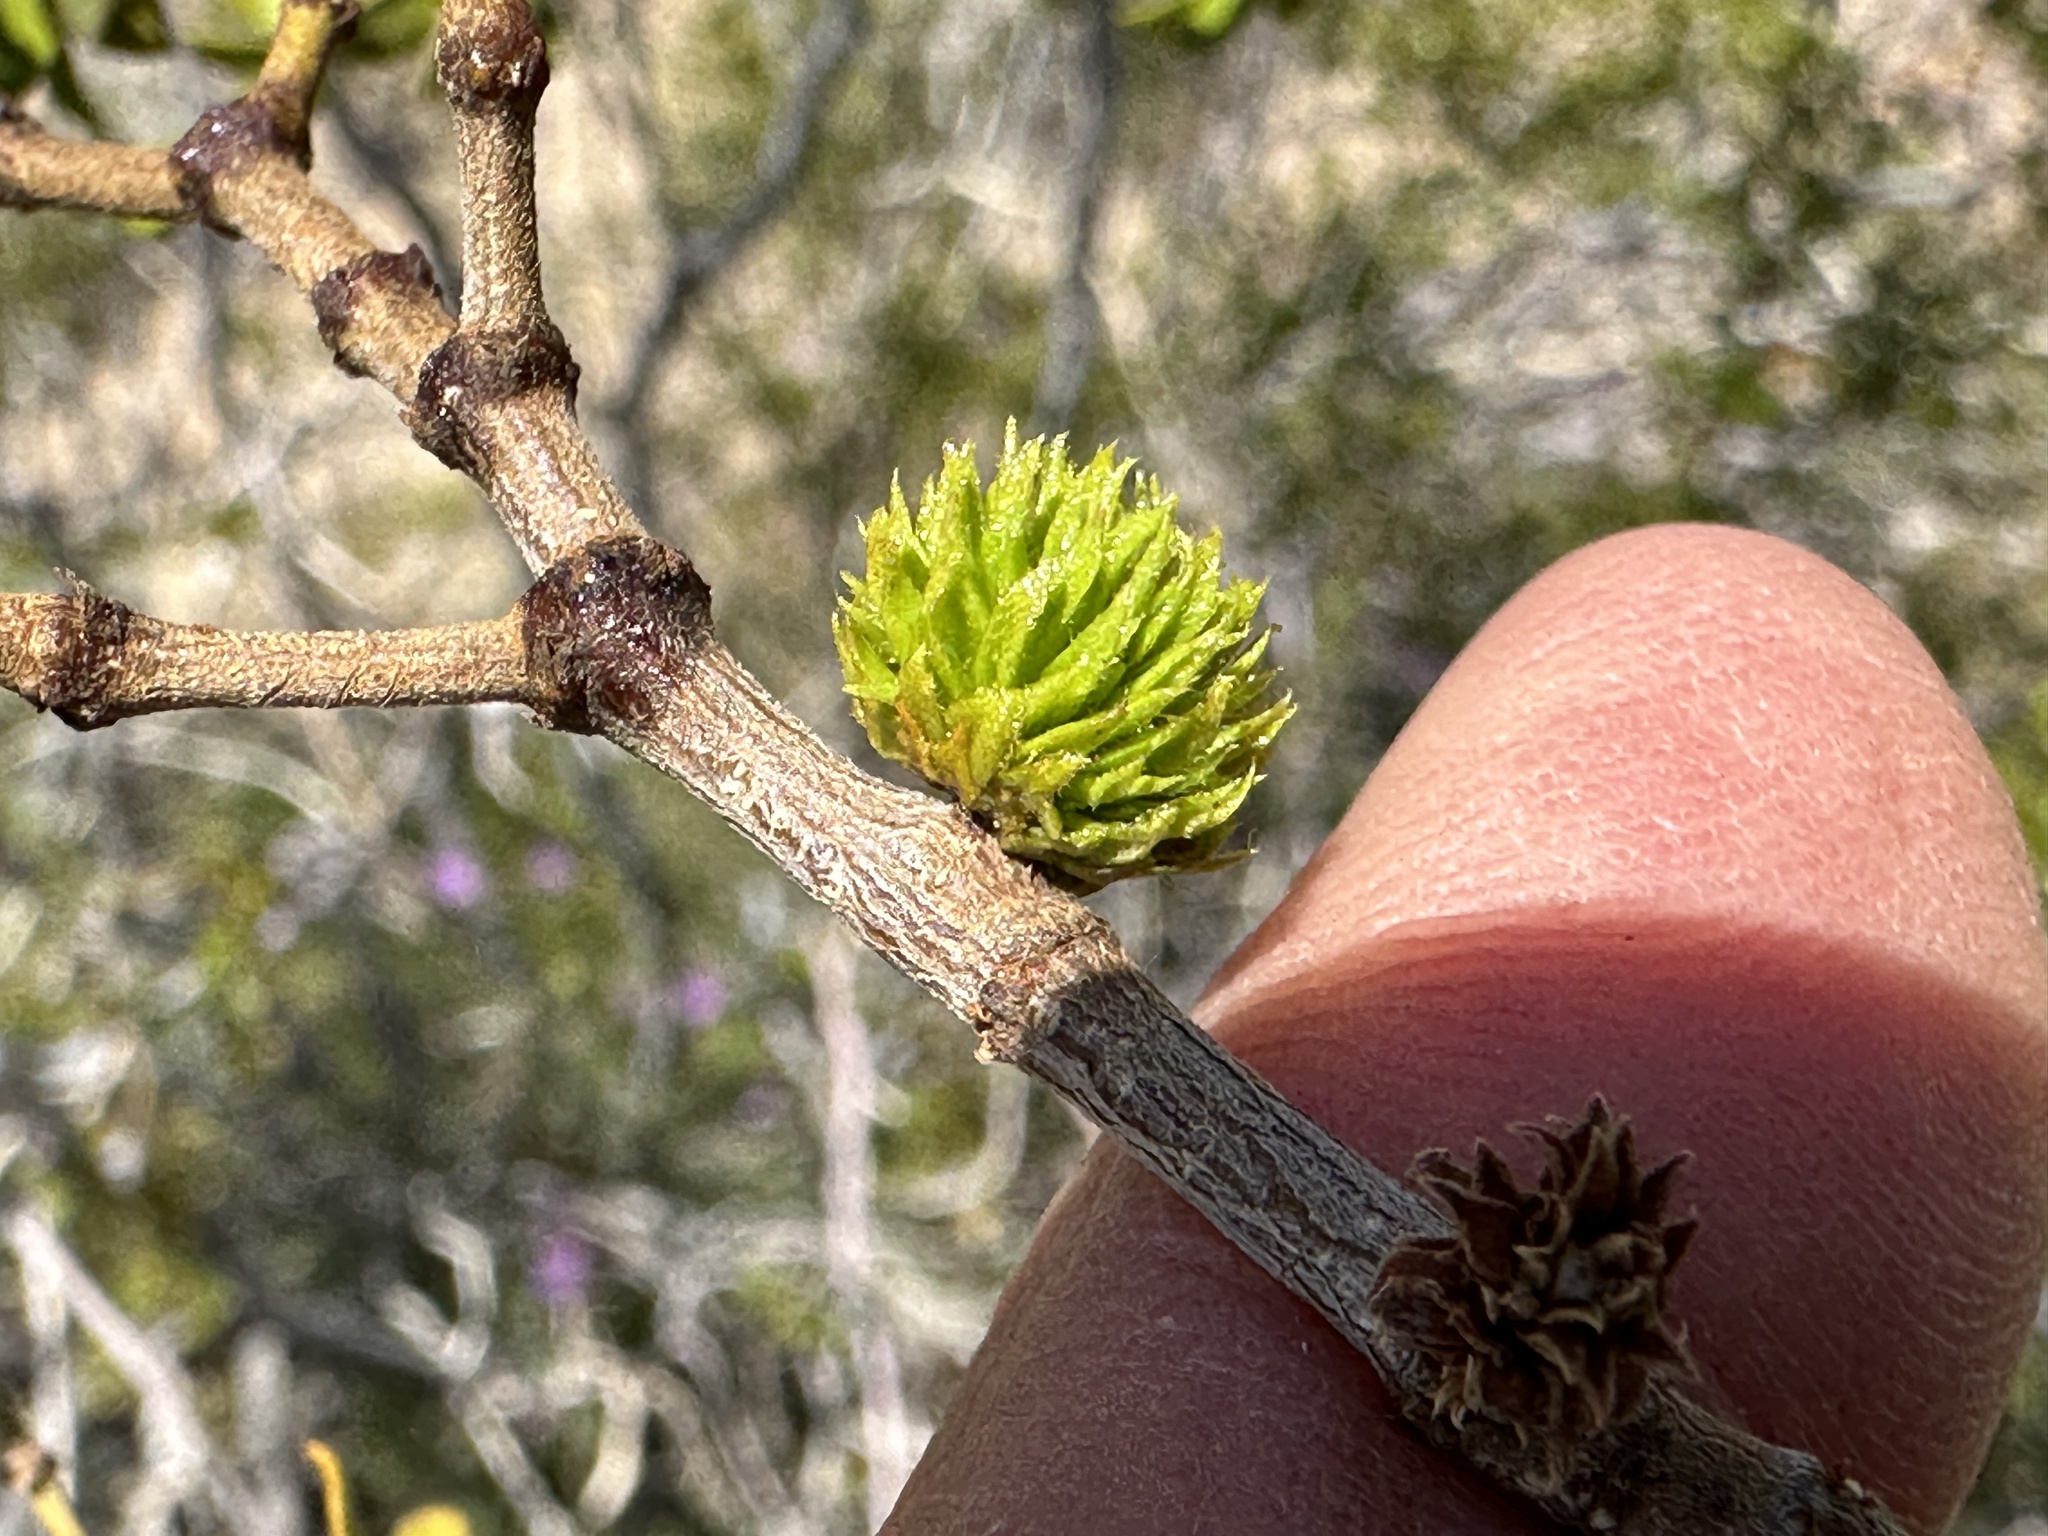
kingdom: Animalia
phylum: Arthropoda
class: Insecta
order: Diptera
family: Cecidomyiidae
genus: Asphondylia
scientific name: Asphondylia foliosa
